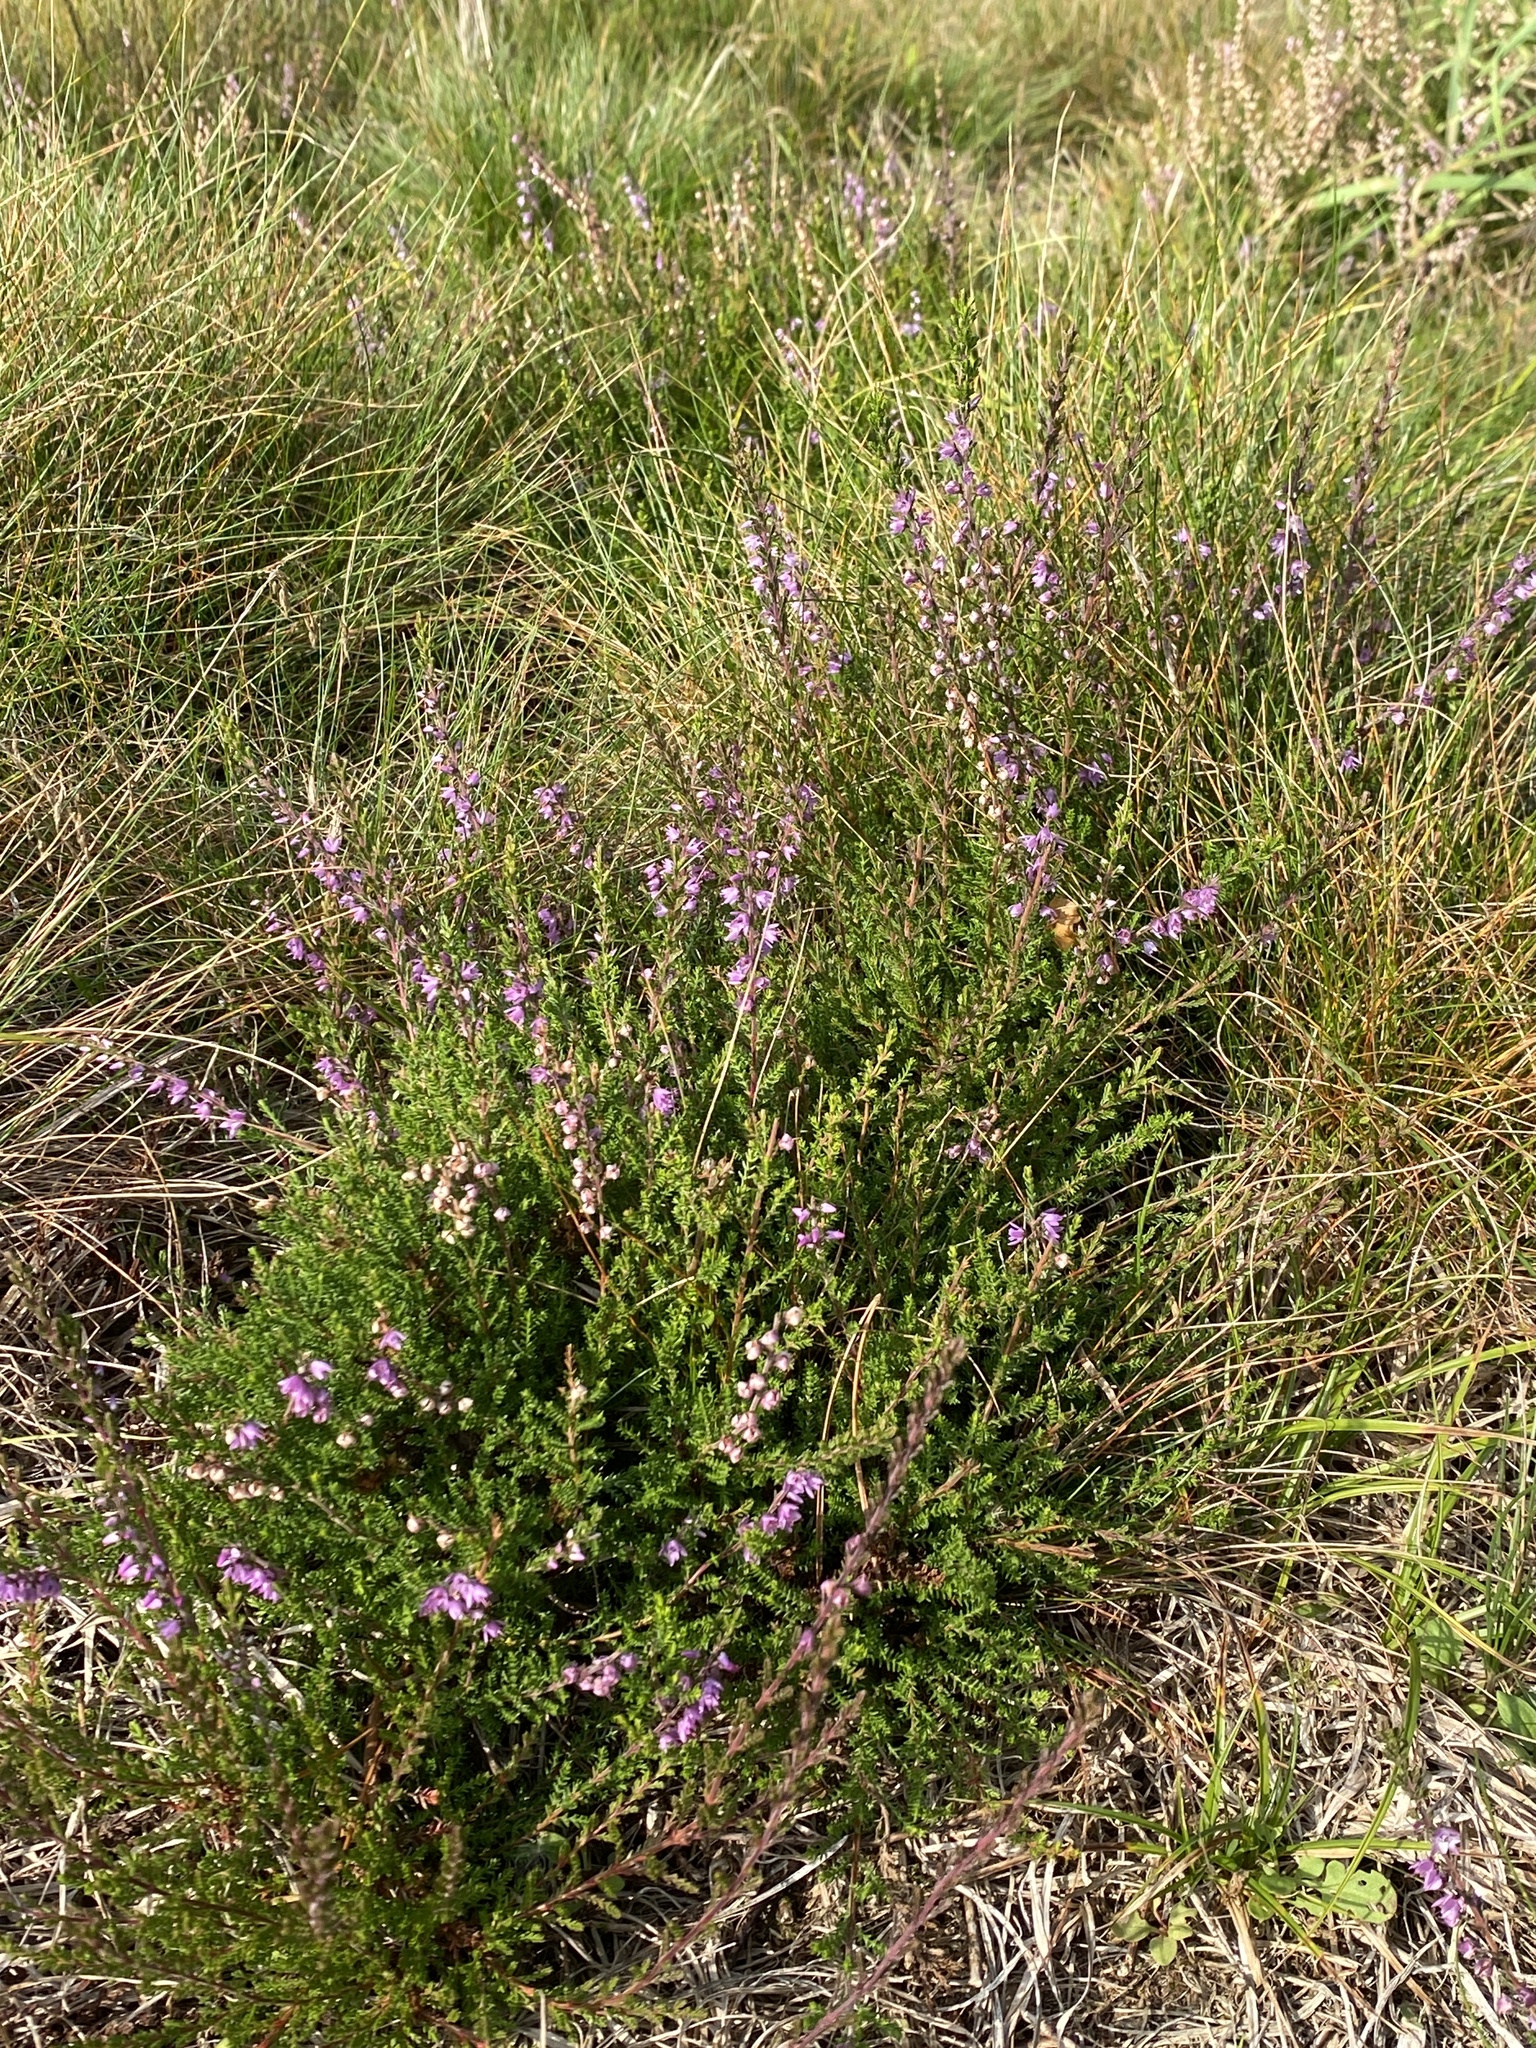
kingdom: Plantae
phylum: Tracheophyta
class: Magnoliopsida
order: Ericales
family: Ericaceae
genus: Calluna
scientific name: Calluna vulgaris
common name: Heather
